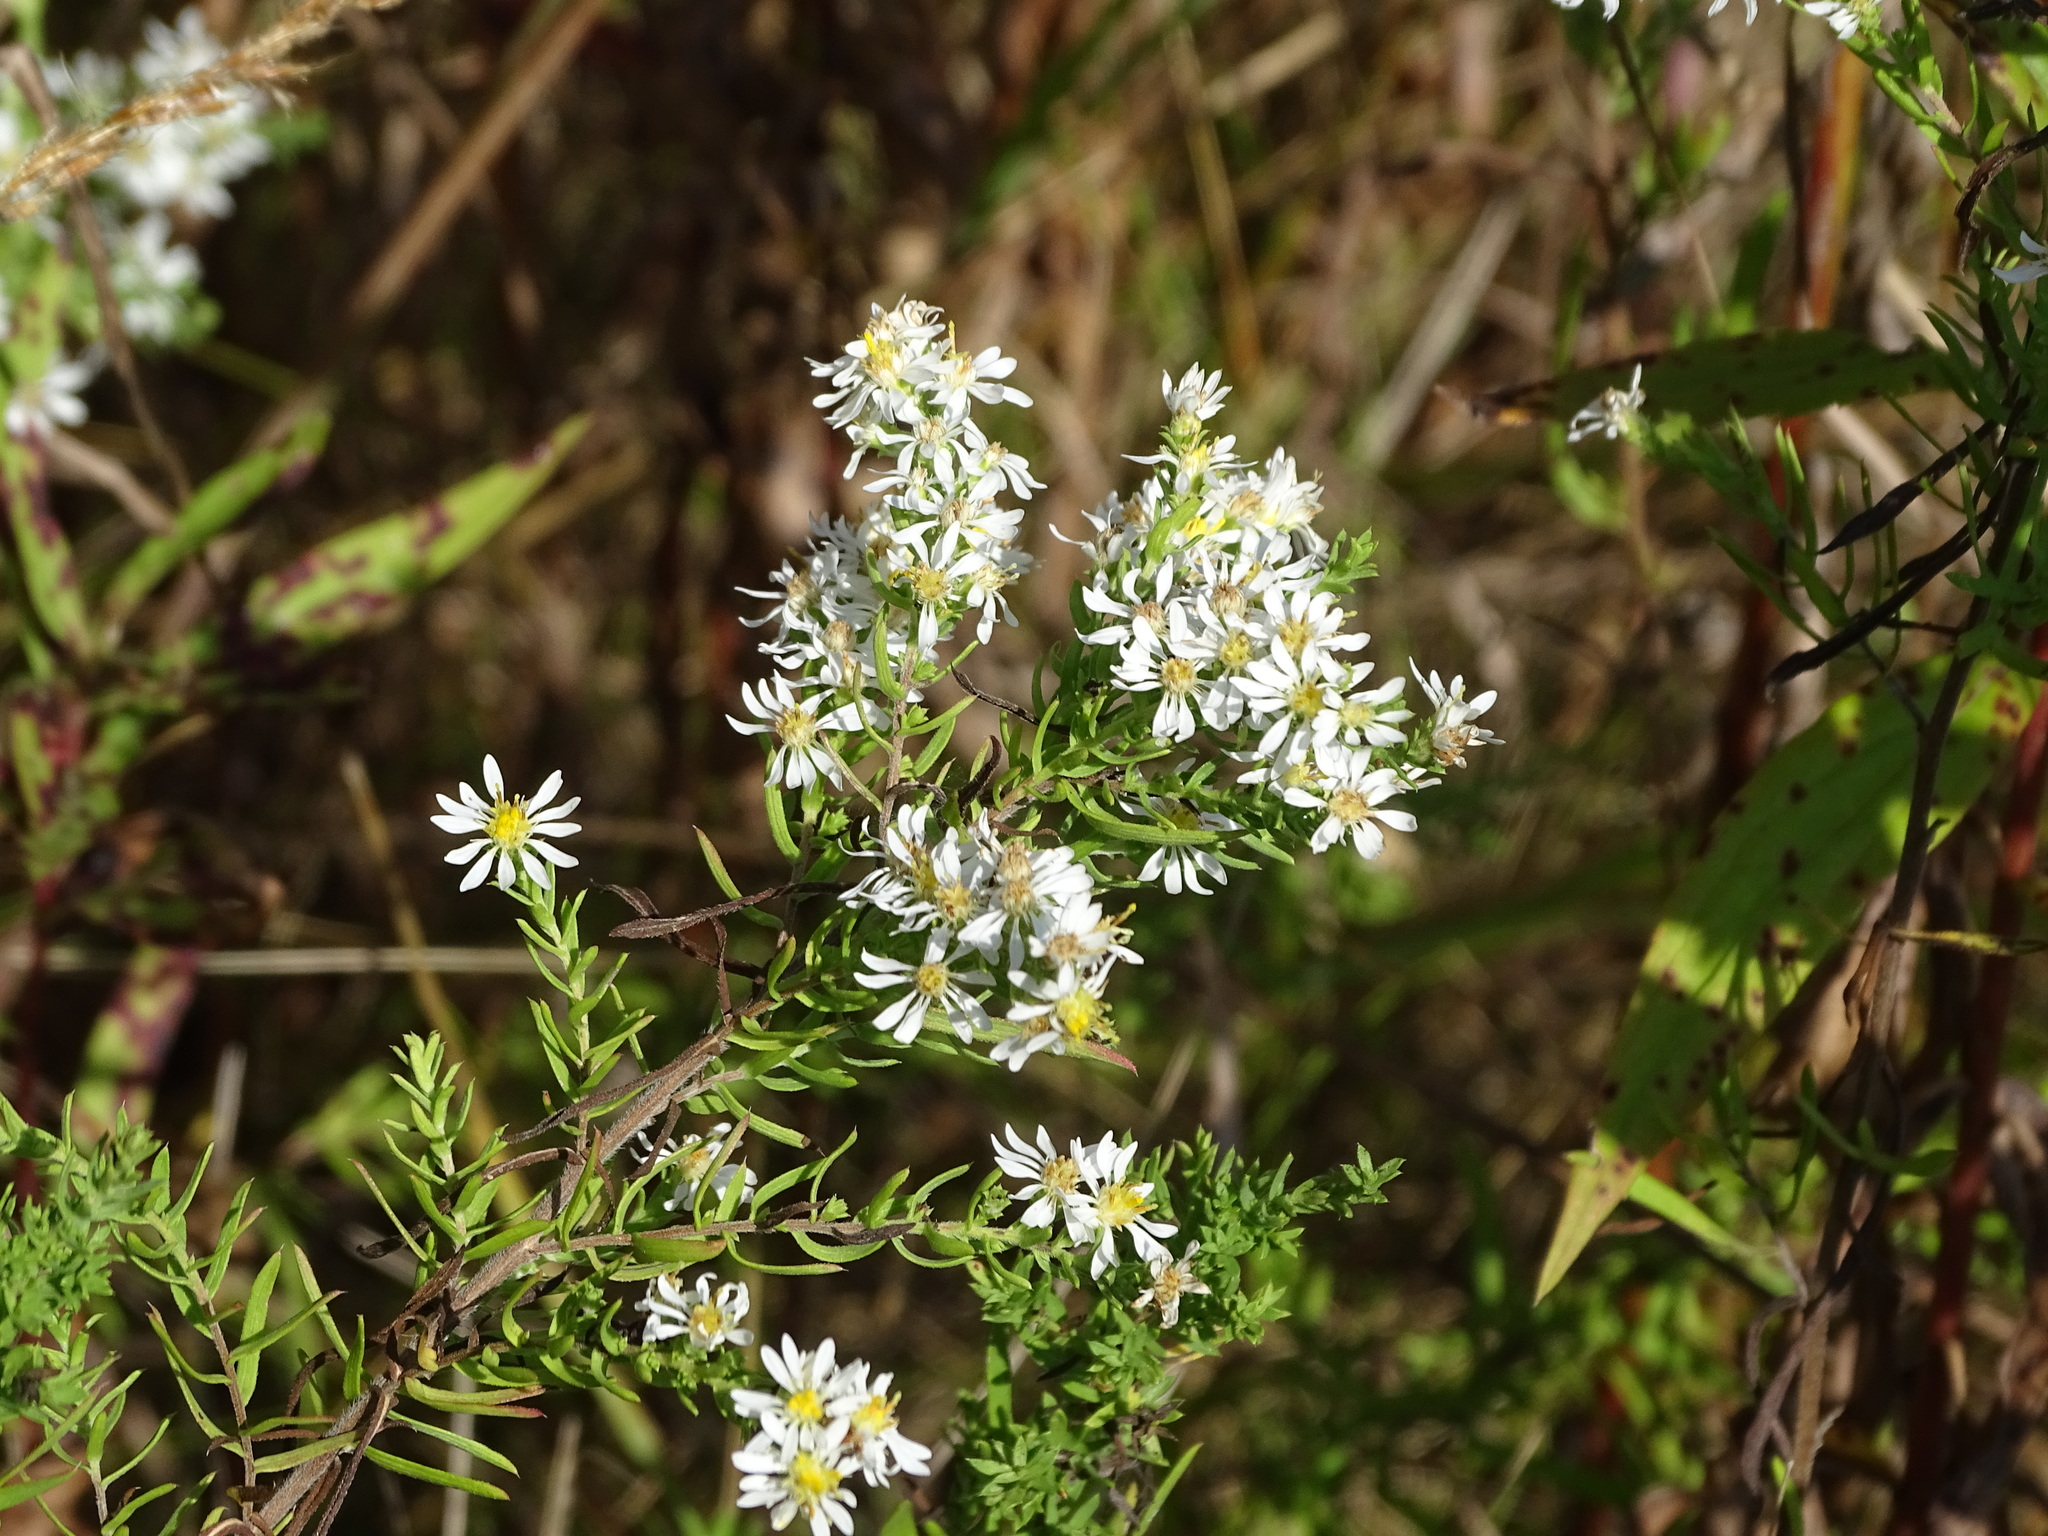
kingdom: Plantae
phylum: Tracheophyta
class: Magnoliopsida
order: Asterales
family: Asteraceae
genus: Symphyotrichum
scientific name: Symphyotrichum ericoides
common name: Heath aster
